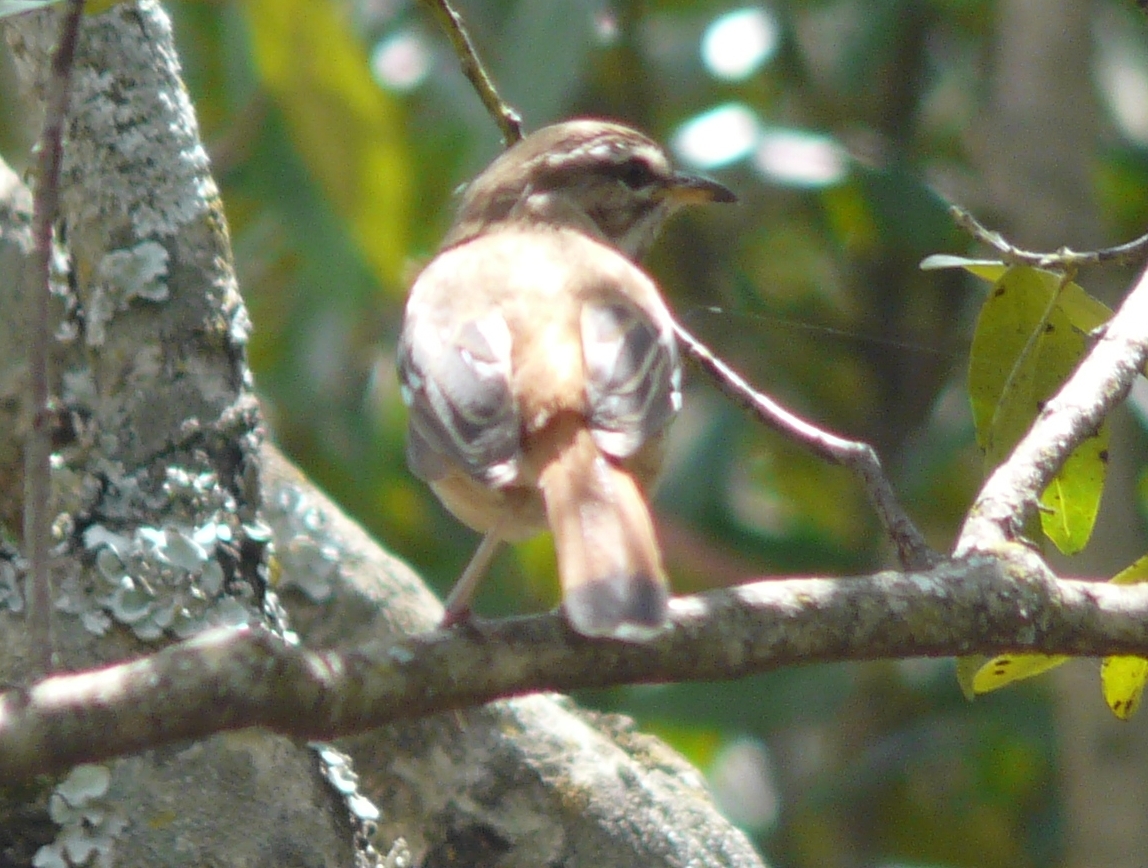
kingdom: Animalia
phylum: Chordata
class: Aves
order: Passeriformes
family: Muscicapidae
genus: Erythropygia
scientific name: Erythropygia leucophrys
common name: White-browed scrub robin
